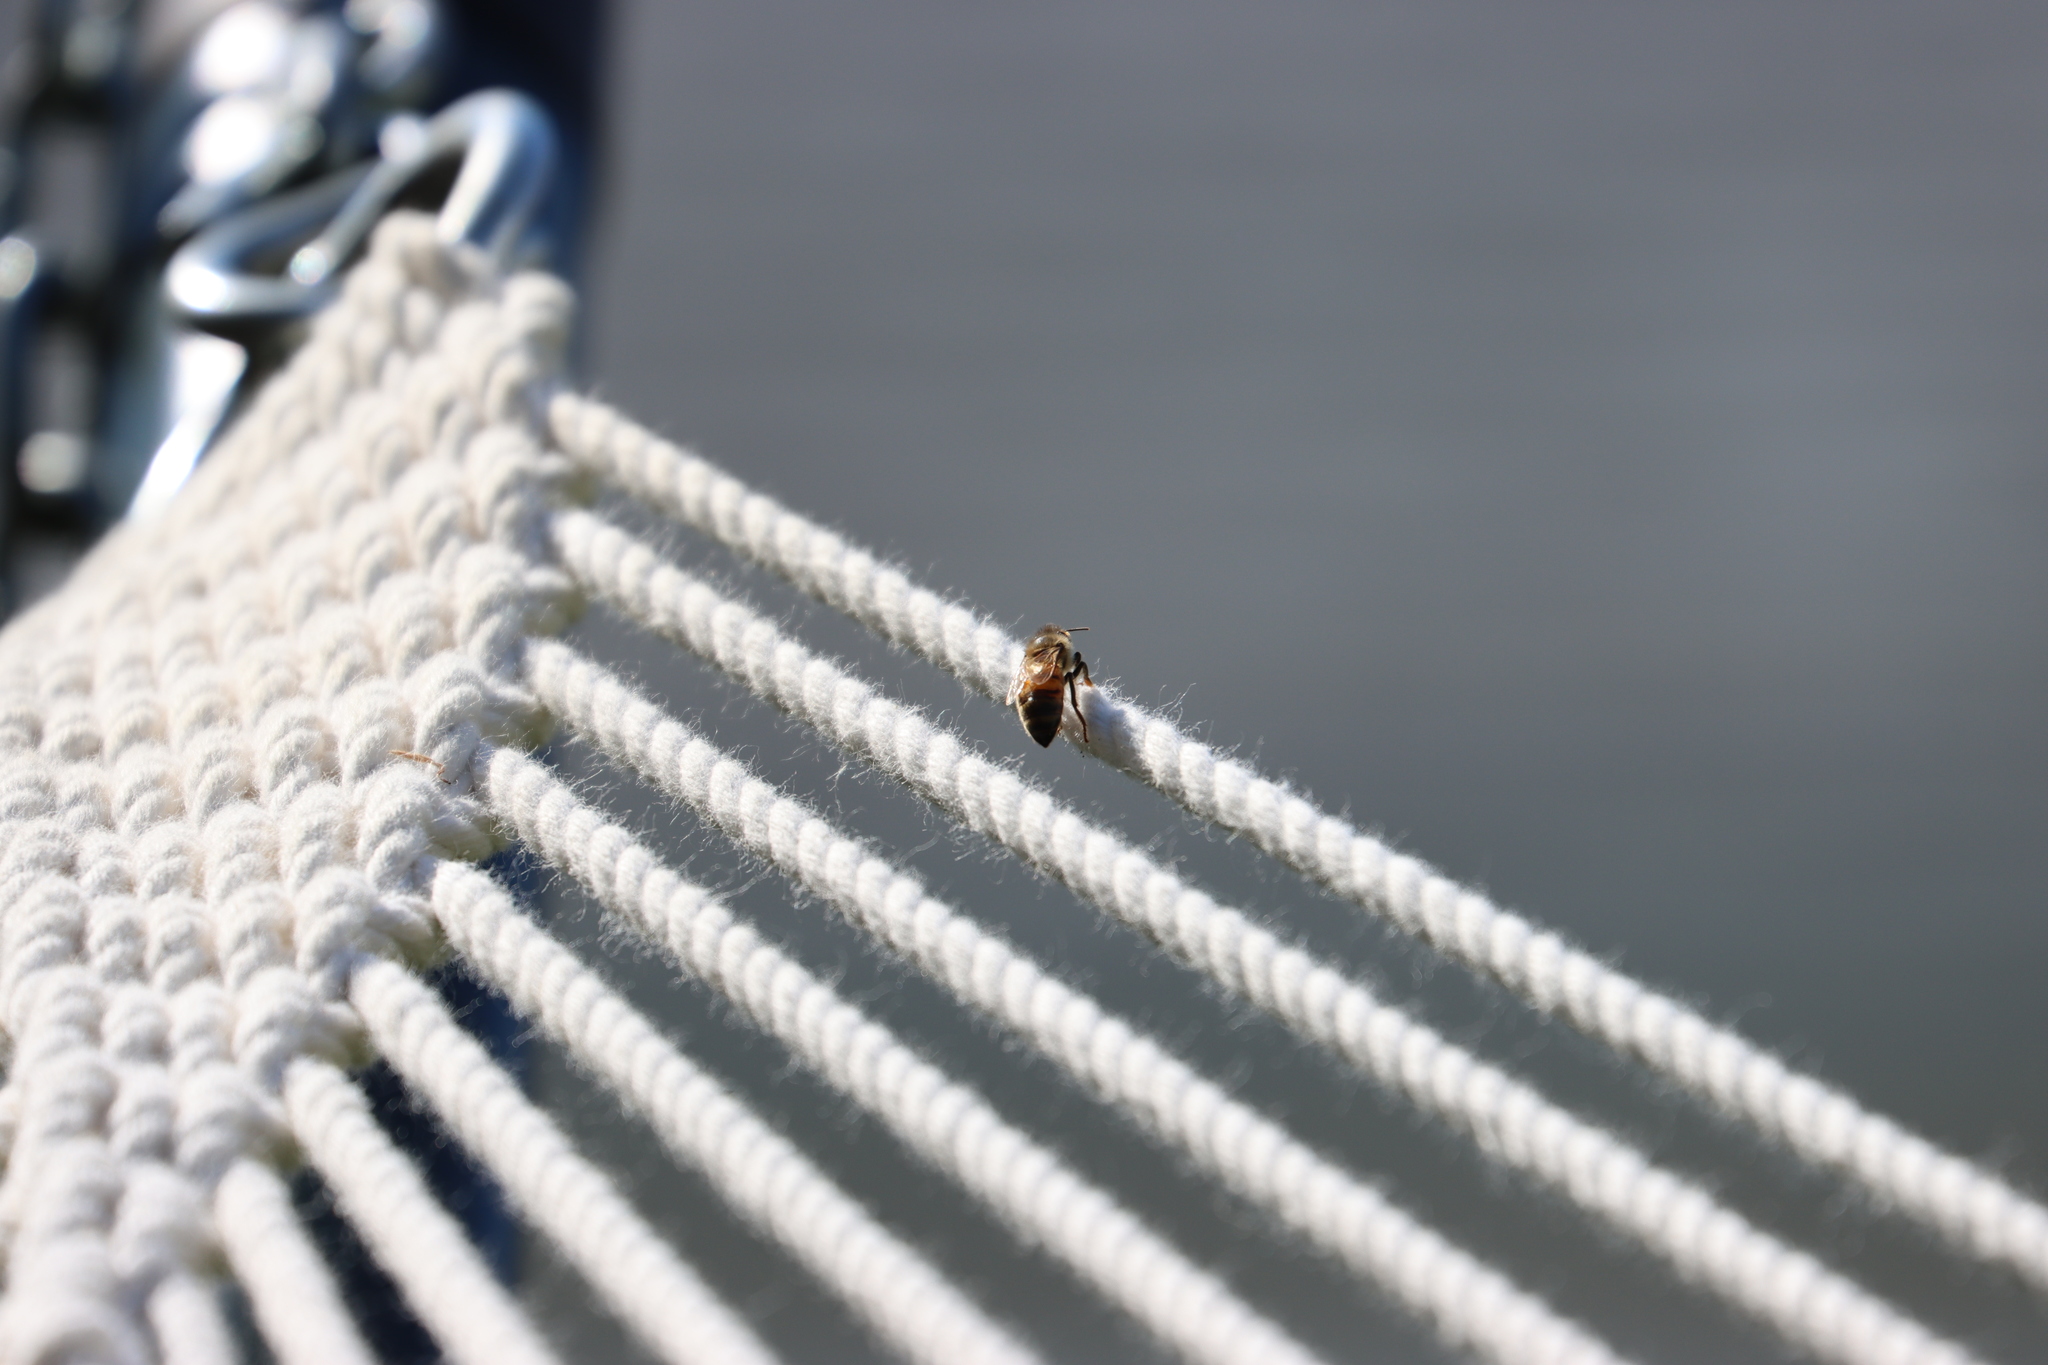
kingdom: Animalia
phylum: Arthropoda
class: Insecta
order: Hymenoptera
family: Apidae
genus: Apis
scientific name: Apis mellifera
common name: Honey bee
